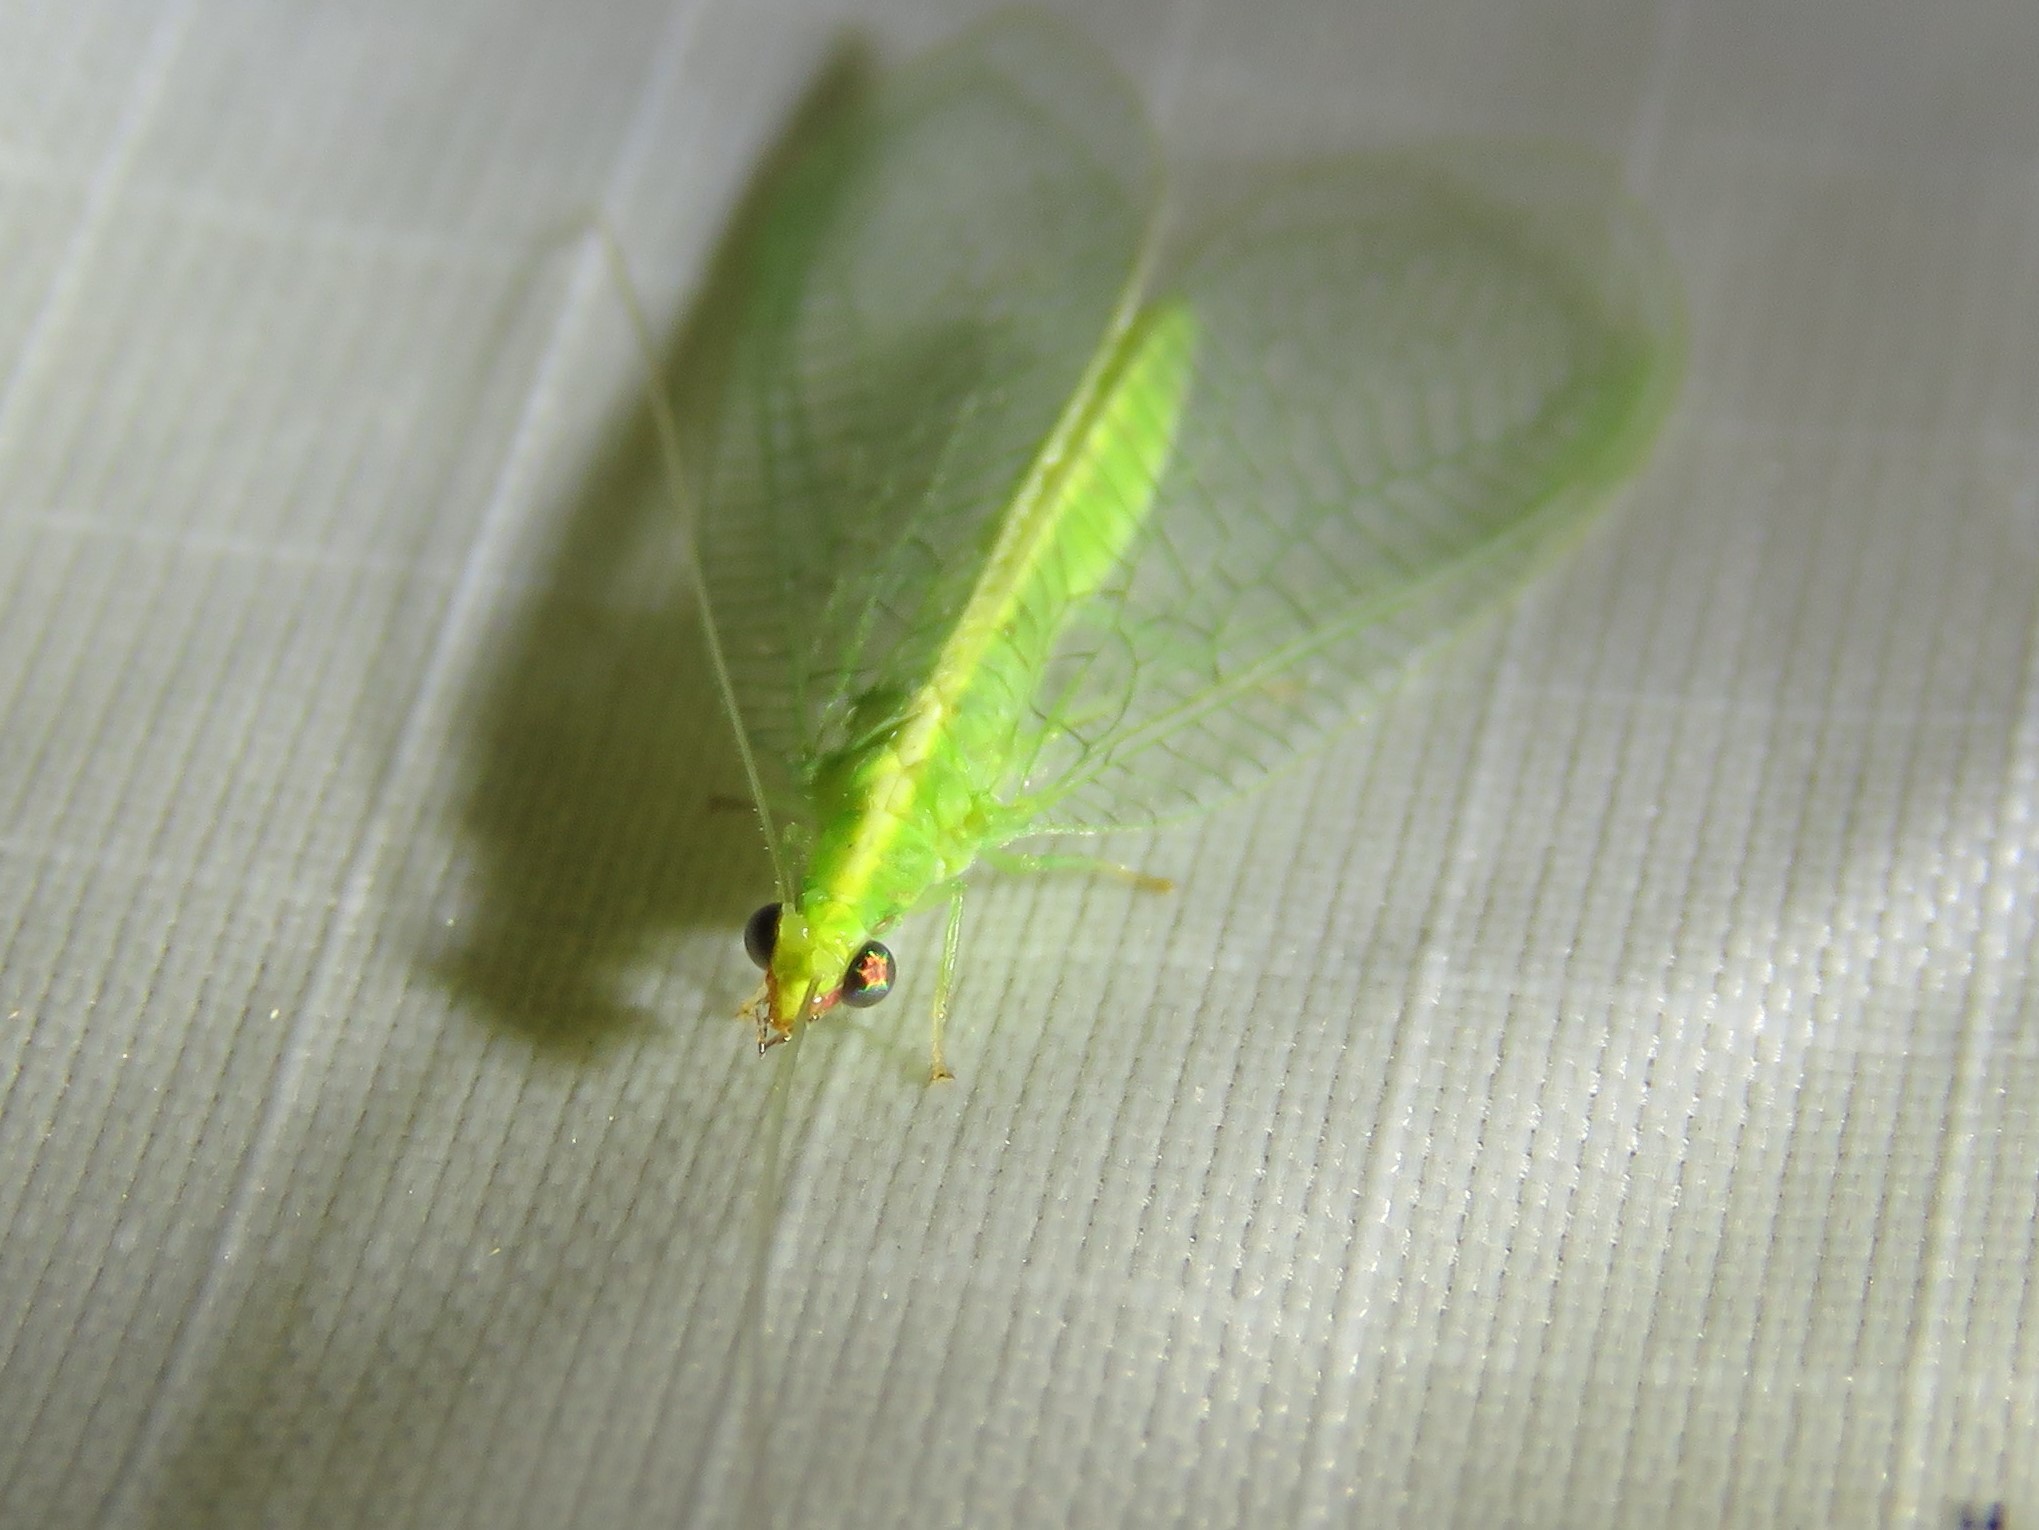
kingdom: Animalia
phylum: Arthropoda
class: Insecta
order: Neuroptera
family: Chrysopidae
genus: Chrysoperla
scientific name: Chrysoperla rufilabris
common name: Red-lipped green lacewing
